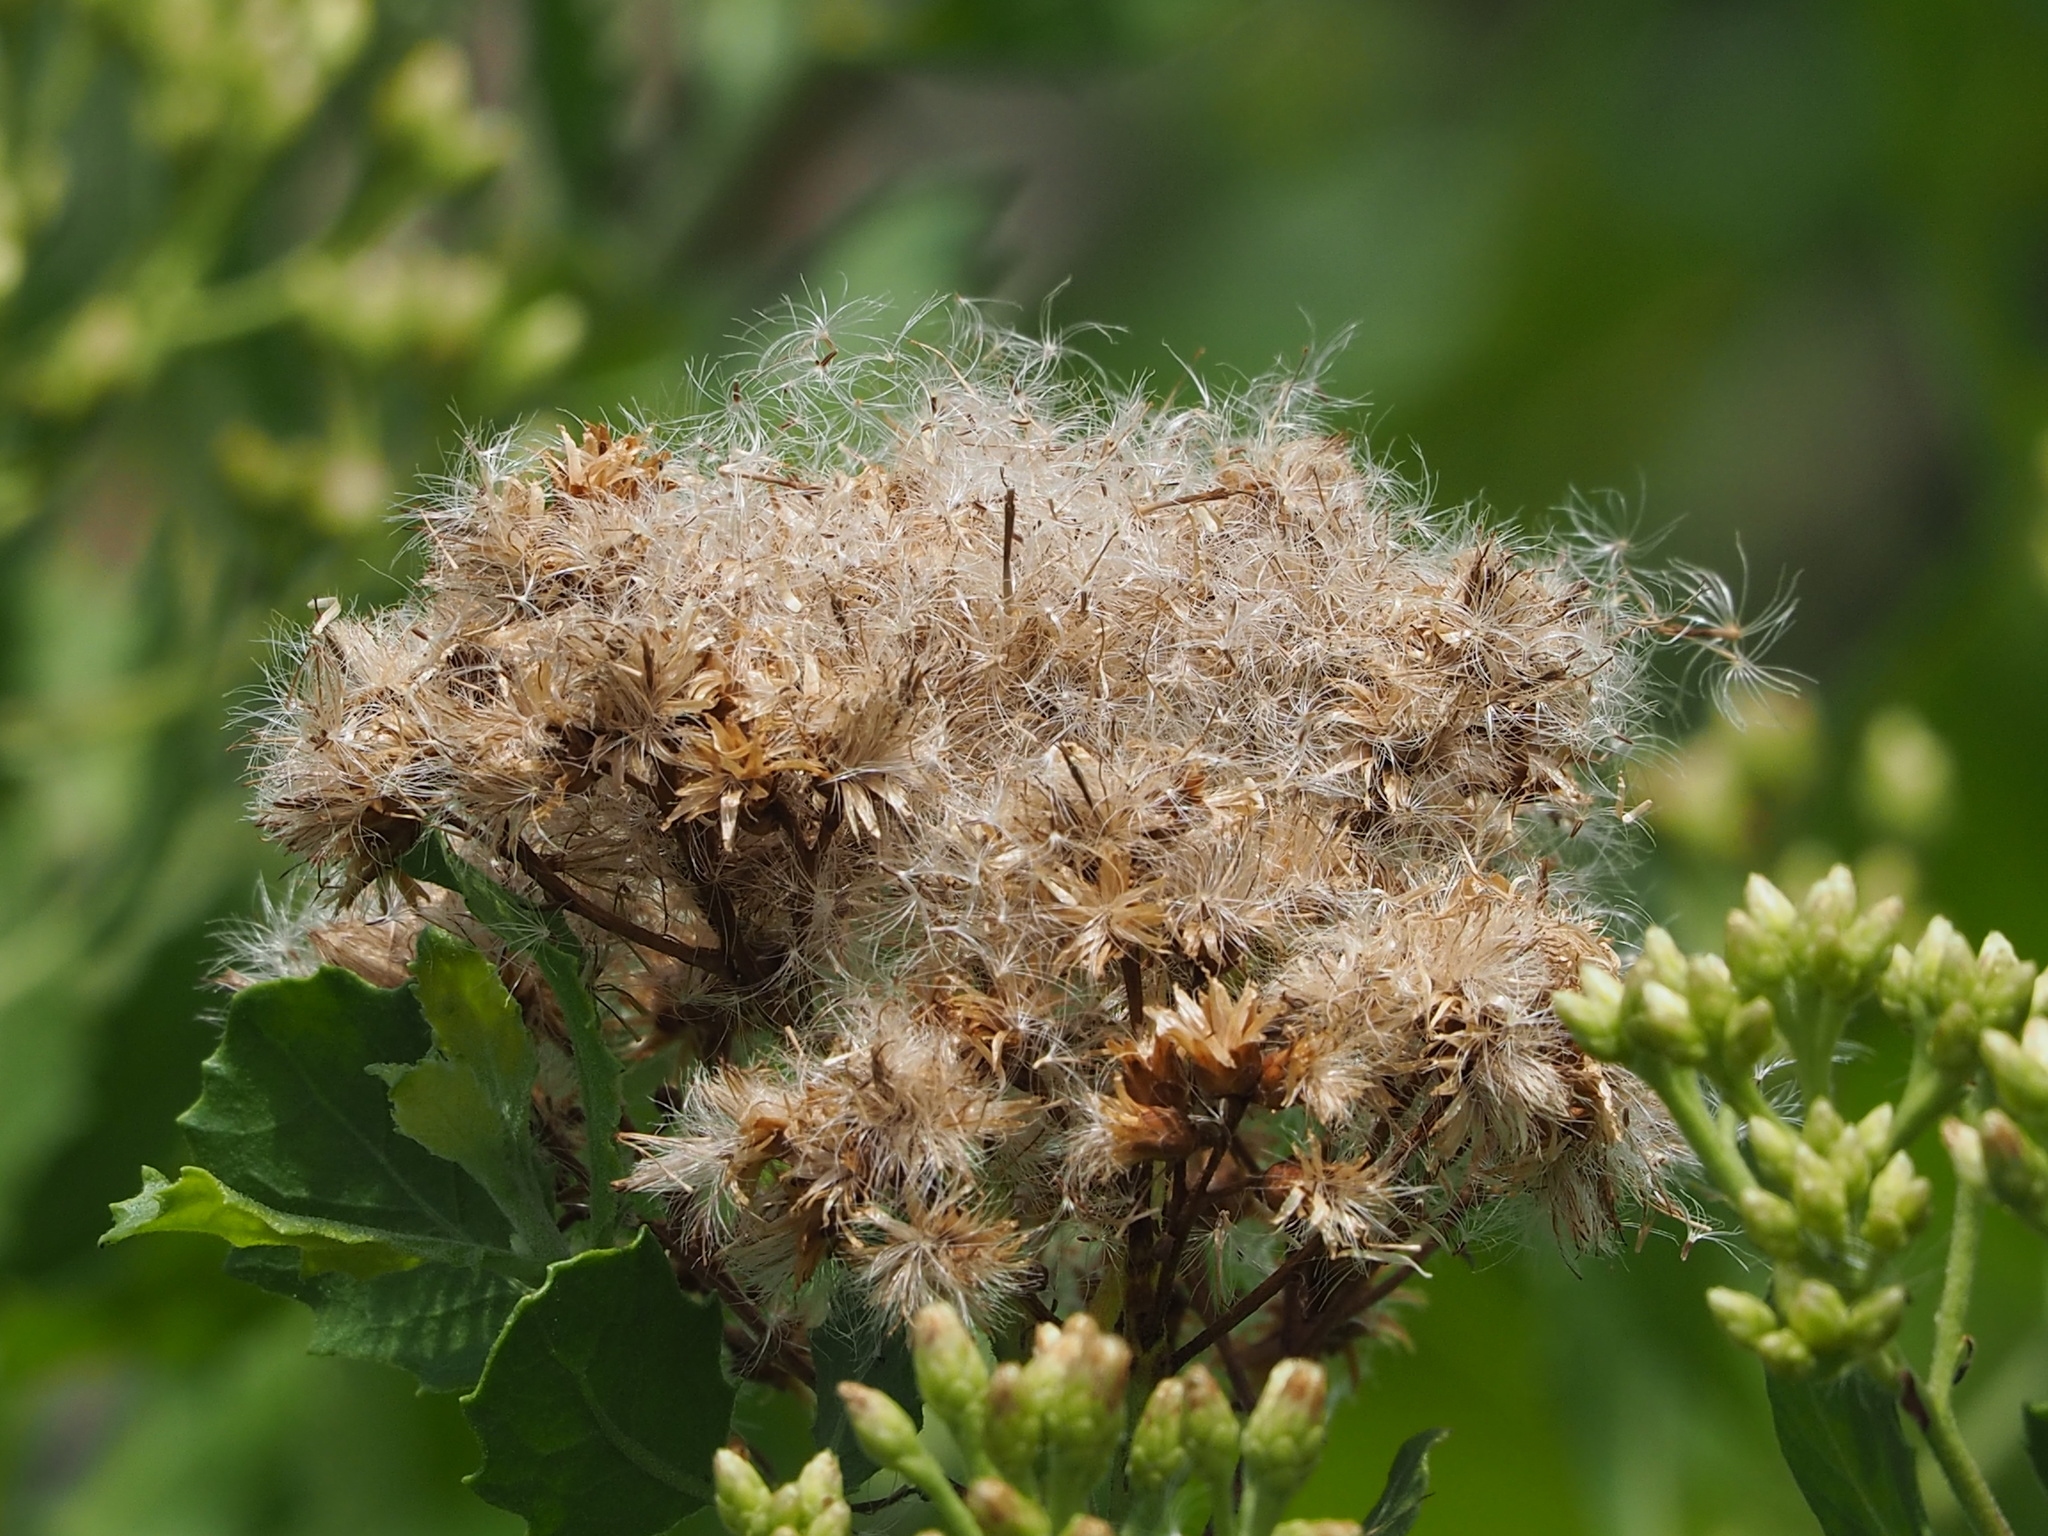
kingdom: Plantae
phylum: Tracheophyta
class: Magnoliopsida
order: Asterales
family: Asteraceae
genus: Pluchea
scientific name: Pluchea indica
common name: Indian fleabane
